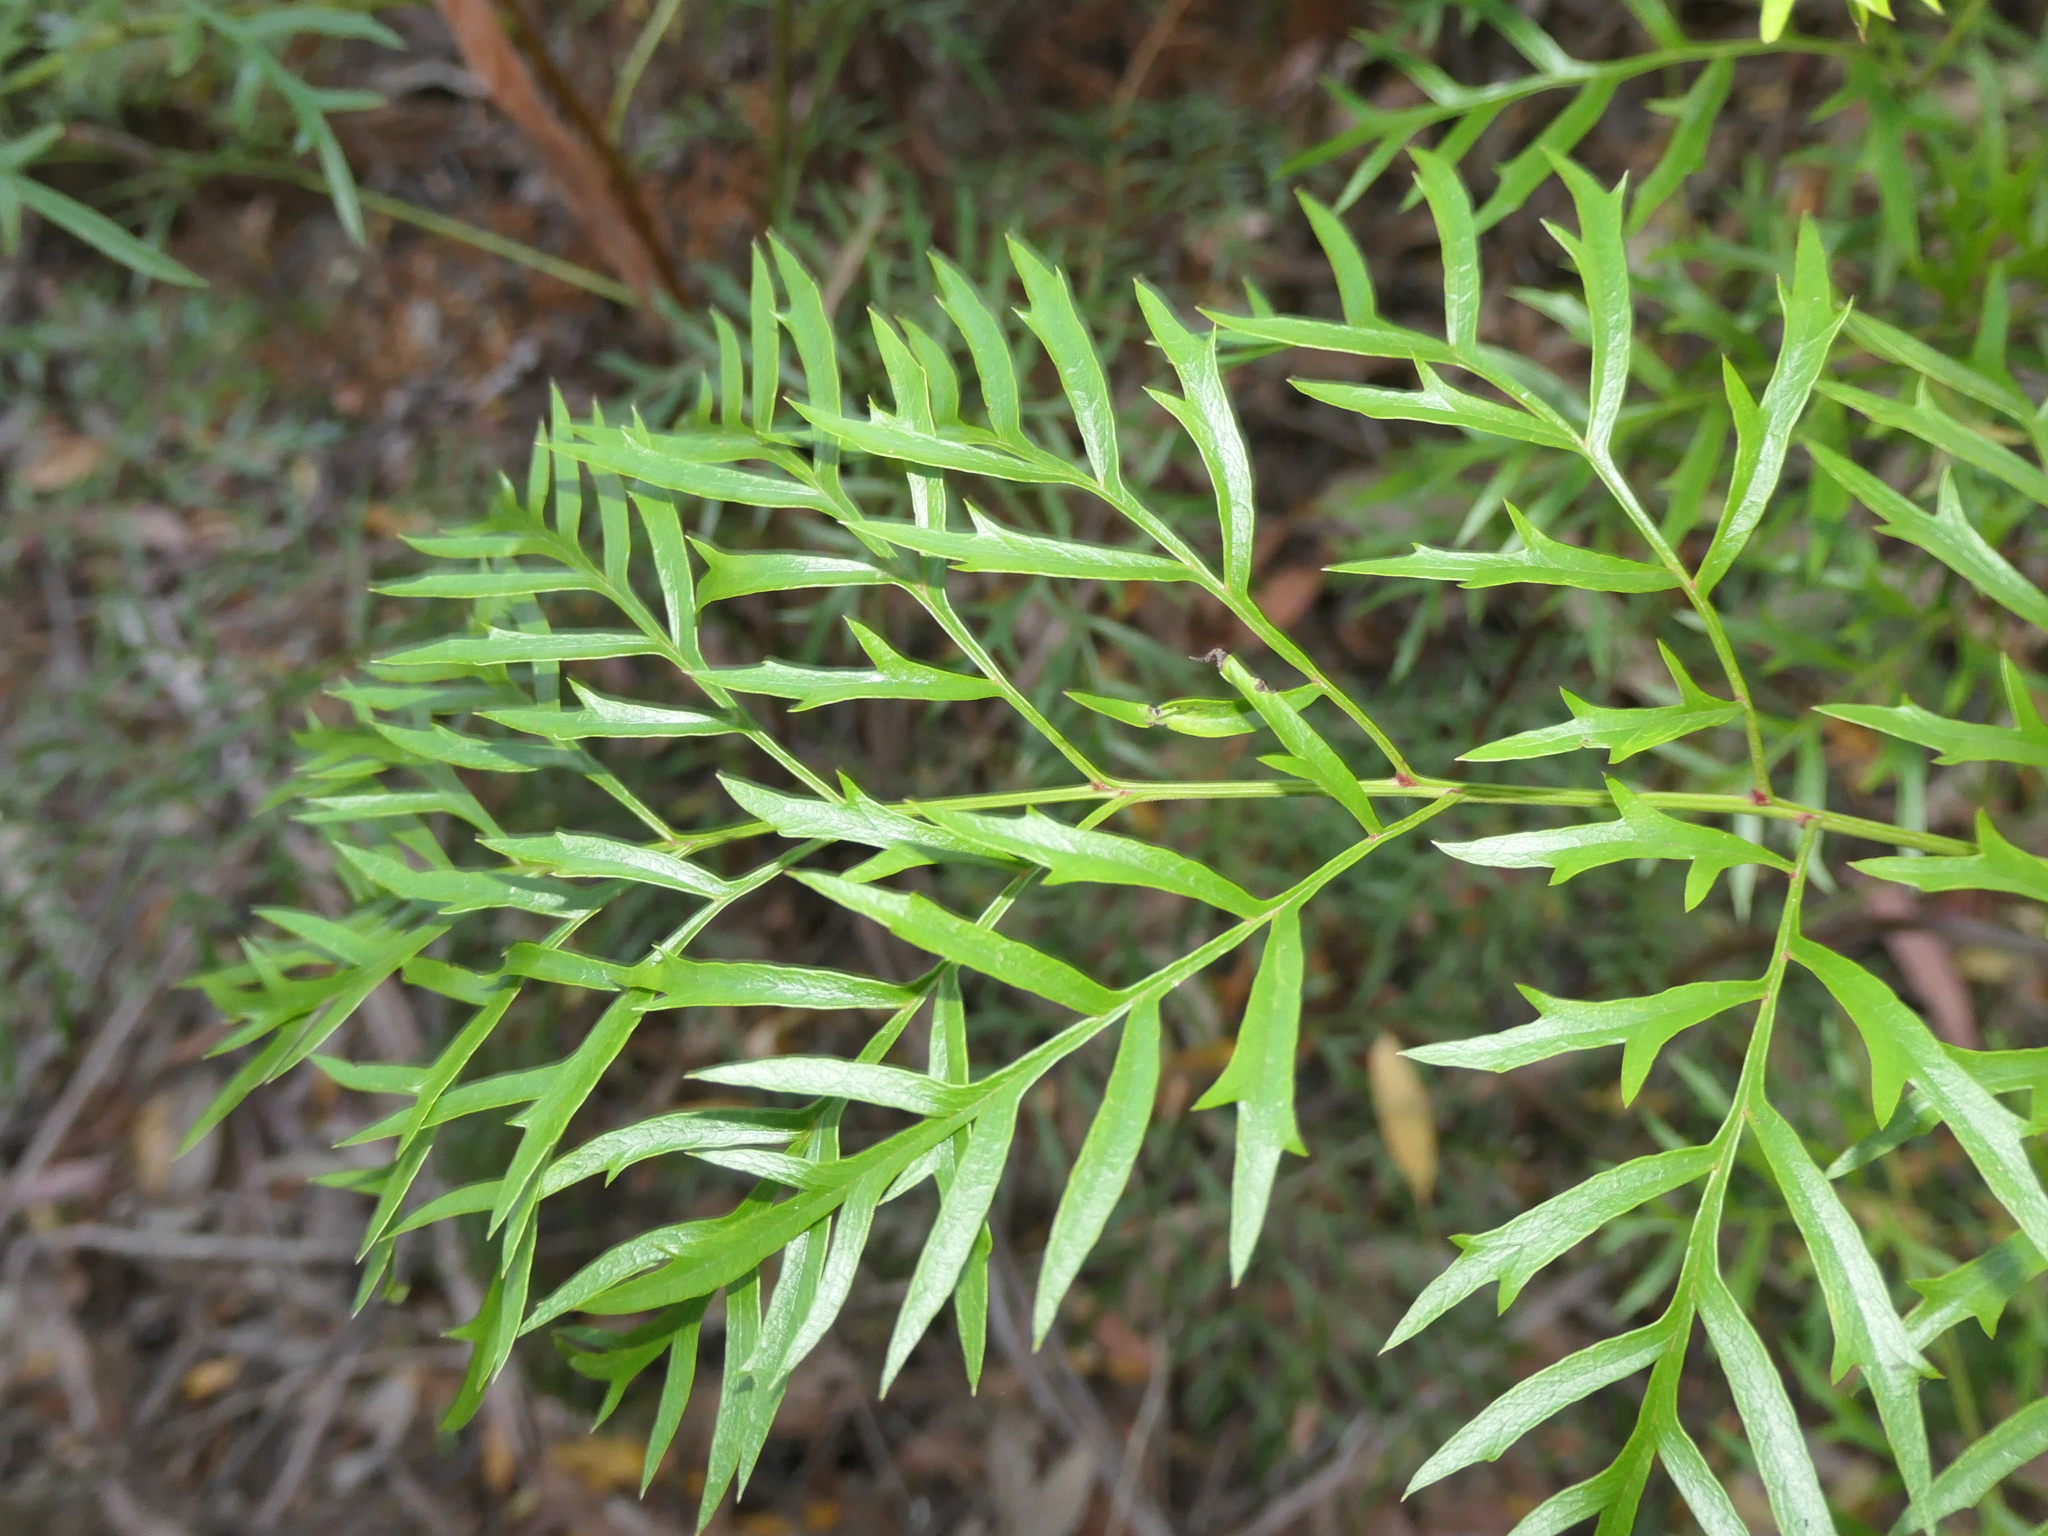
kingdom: Plantae
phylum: Tracheophyta
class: Magnoliopsida
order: Proteales
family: Proteaceae
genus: Lomatia
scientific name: Lomatia silaifolia
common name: Crinklebush
